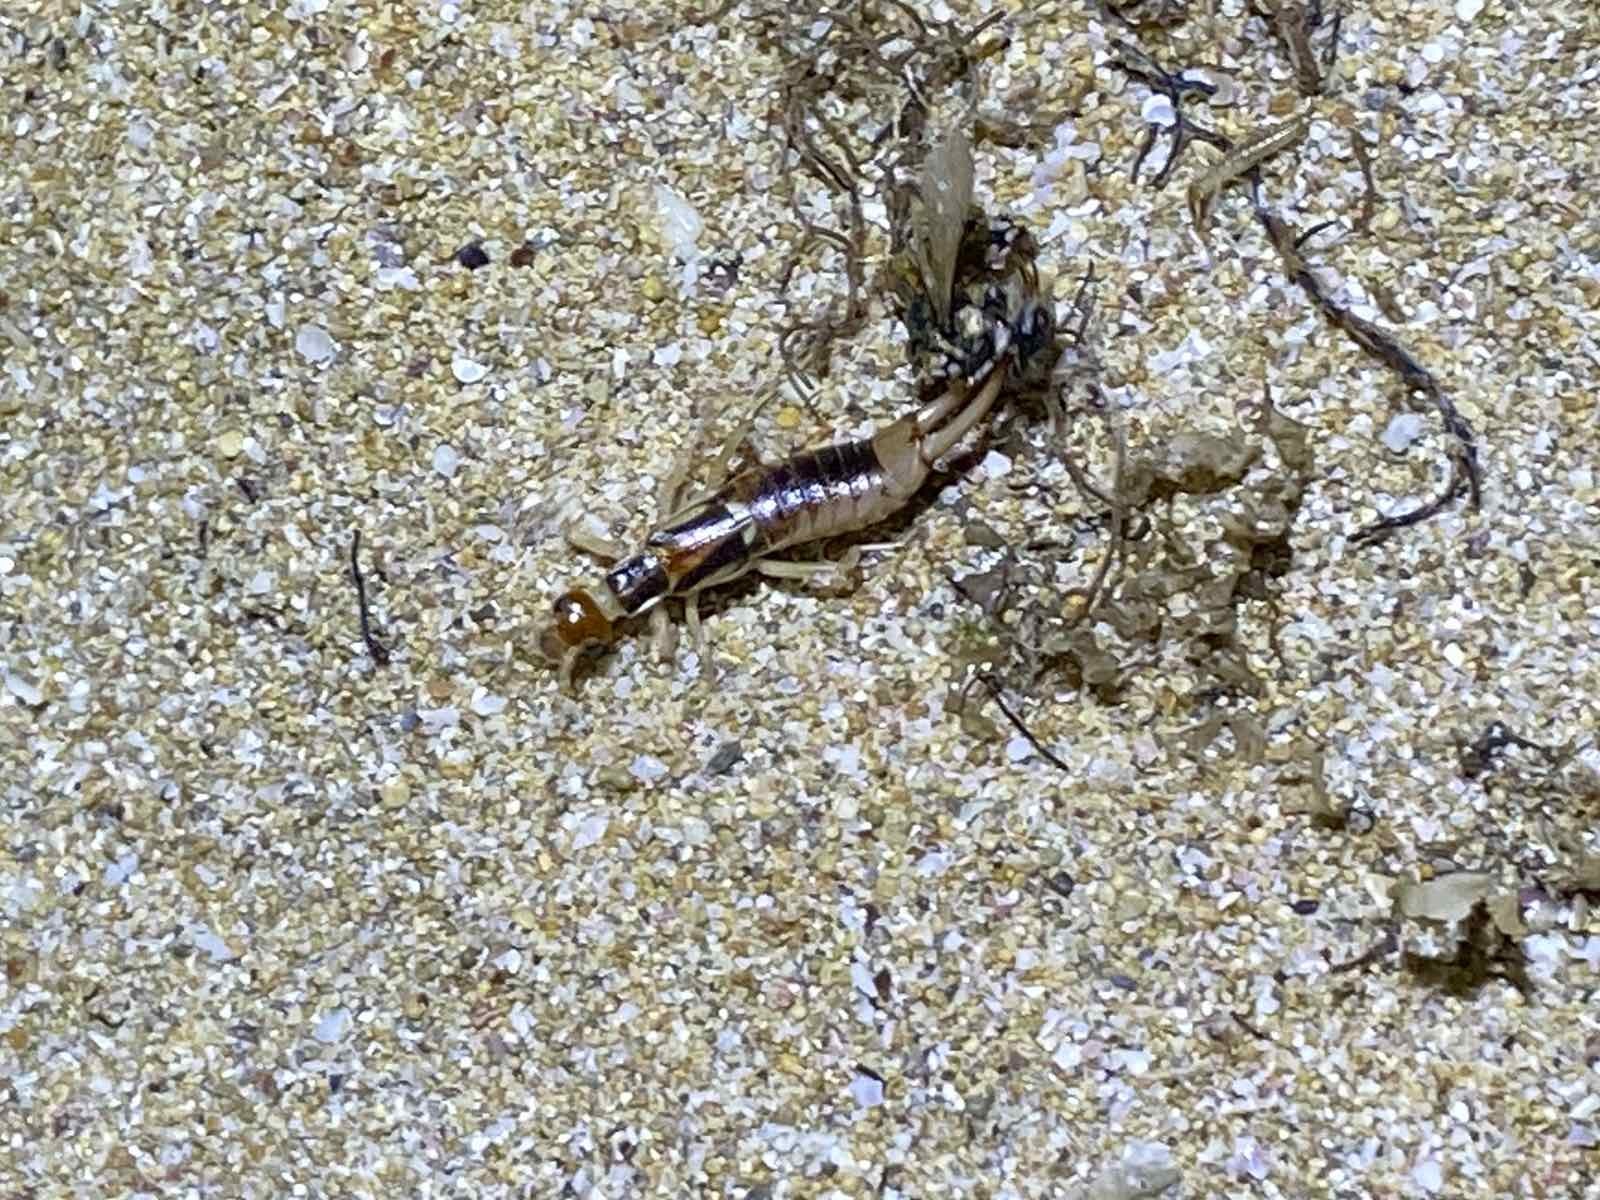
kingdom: Animalia
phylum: Arthropoda
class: Insecta
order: Dermaptera
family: Labiduridae
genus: Labidura
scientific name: Labidura riparia
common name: Striped earwig
